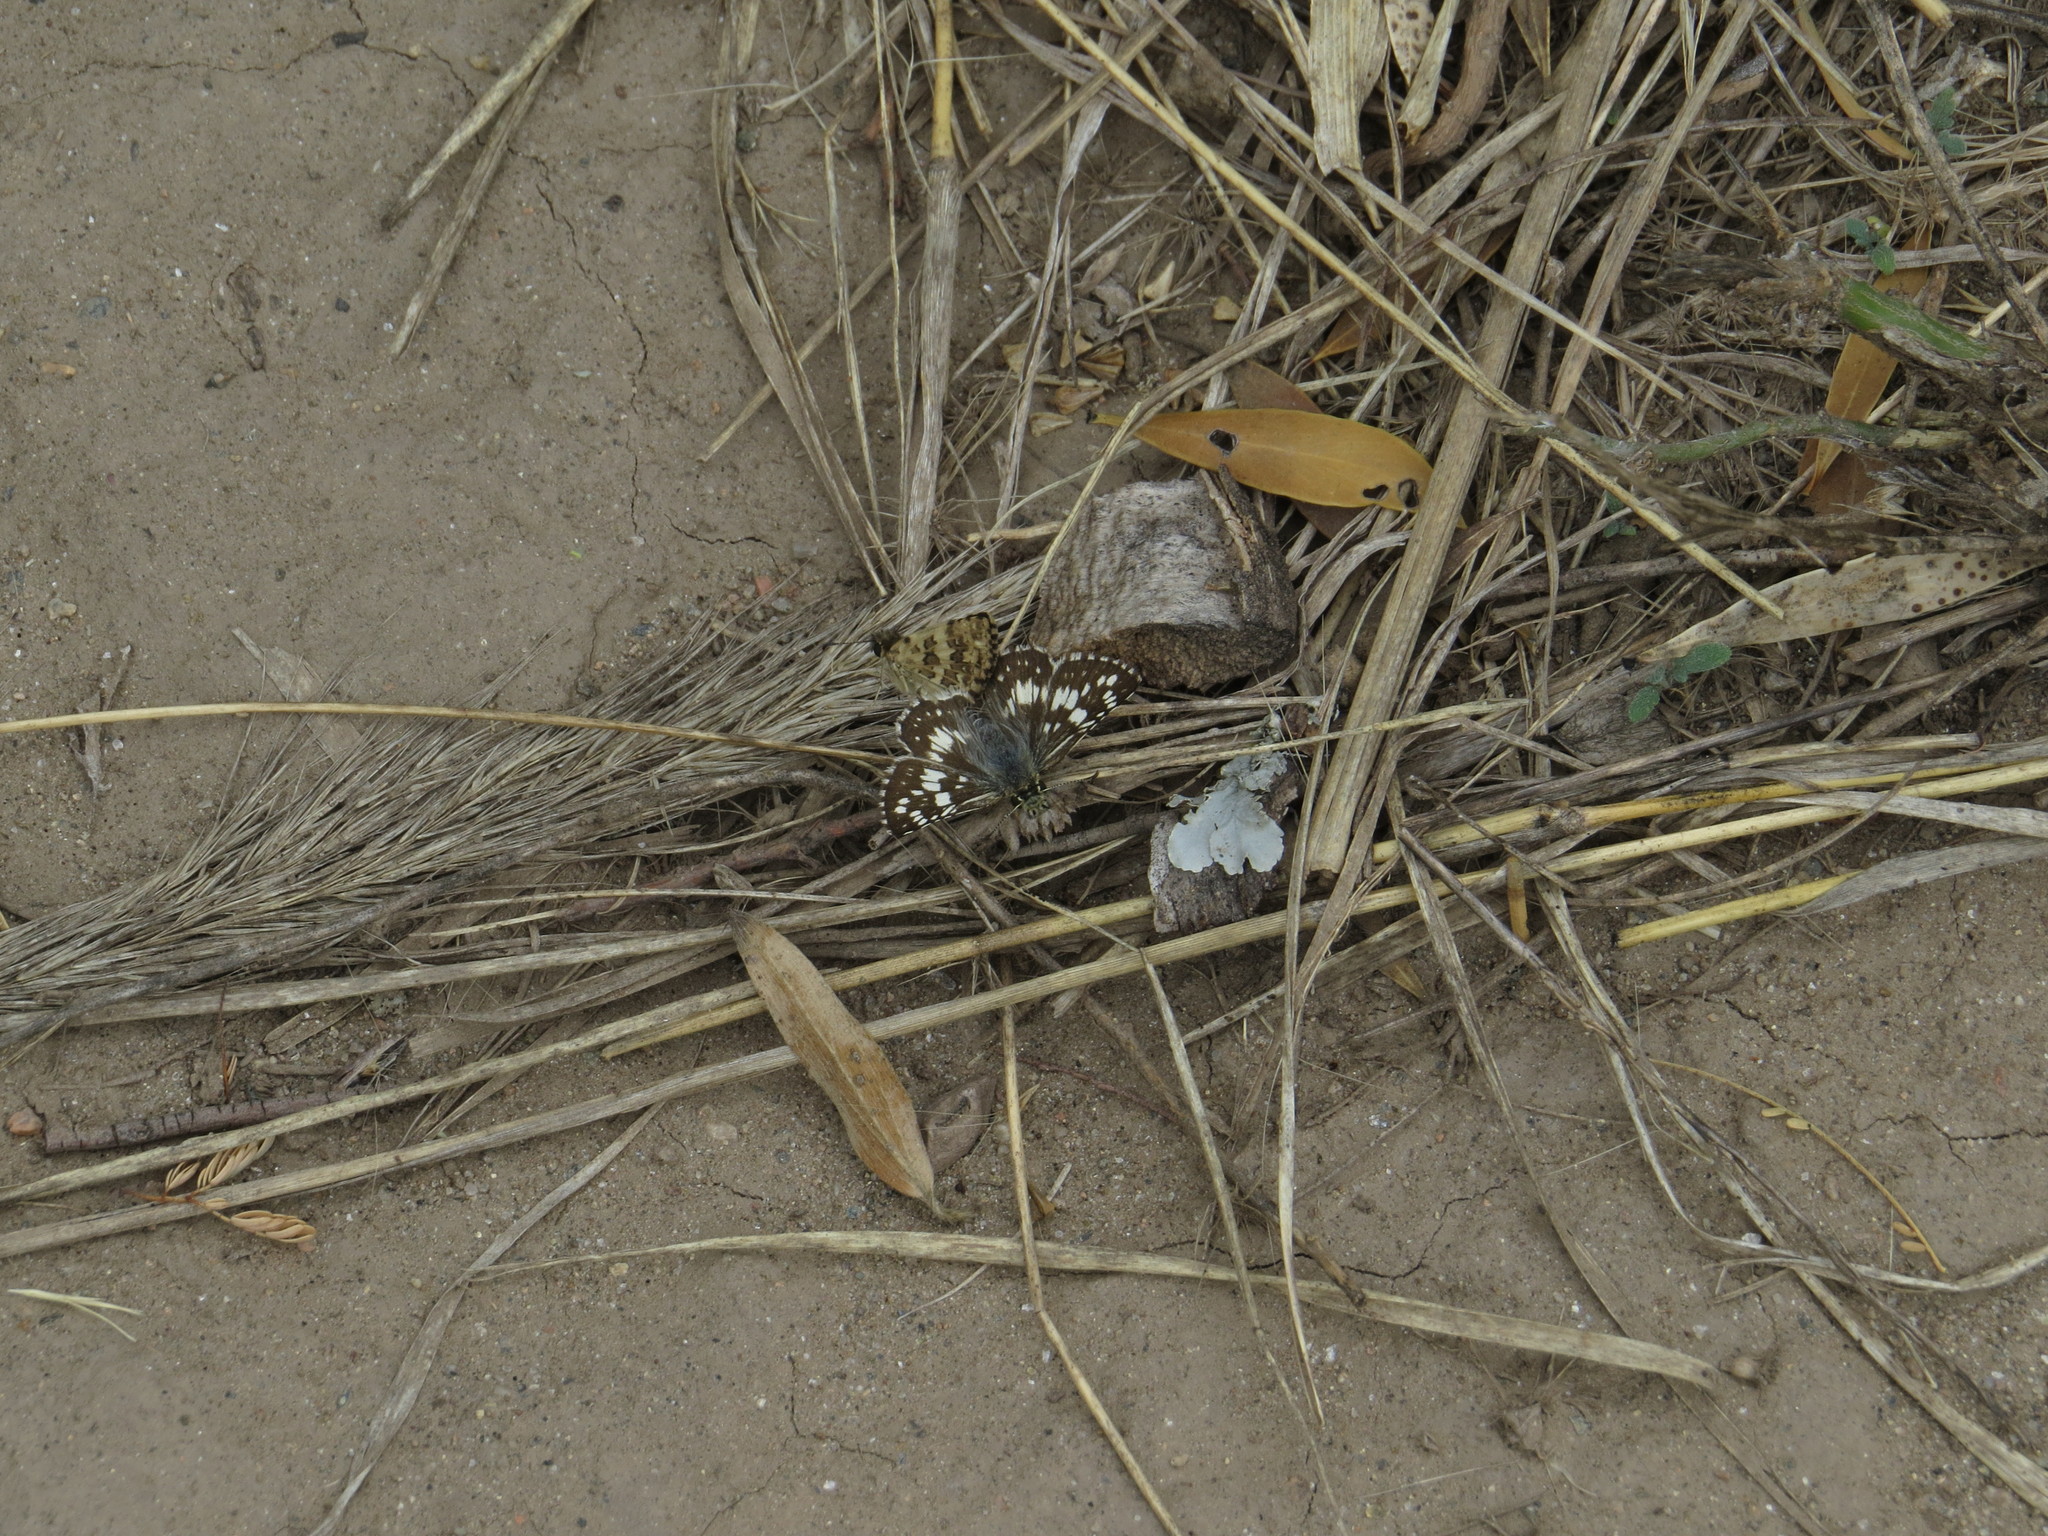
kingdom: Animalia
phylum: Arthropoda
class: Insecta
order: Lepidoptera
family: Hesperiidae
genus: Burnsius
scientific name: Burnsius orcynoides
